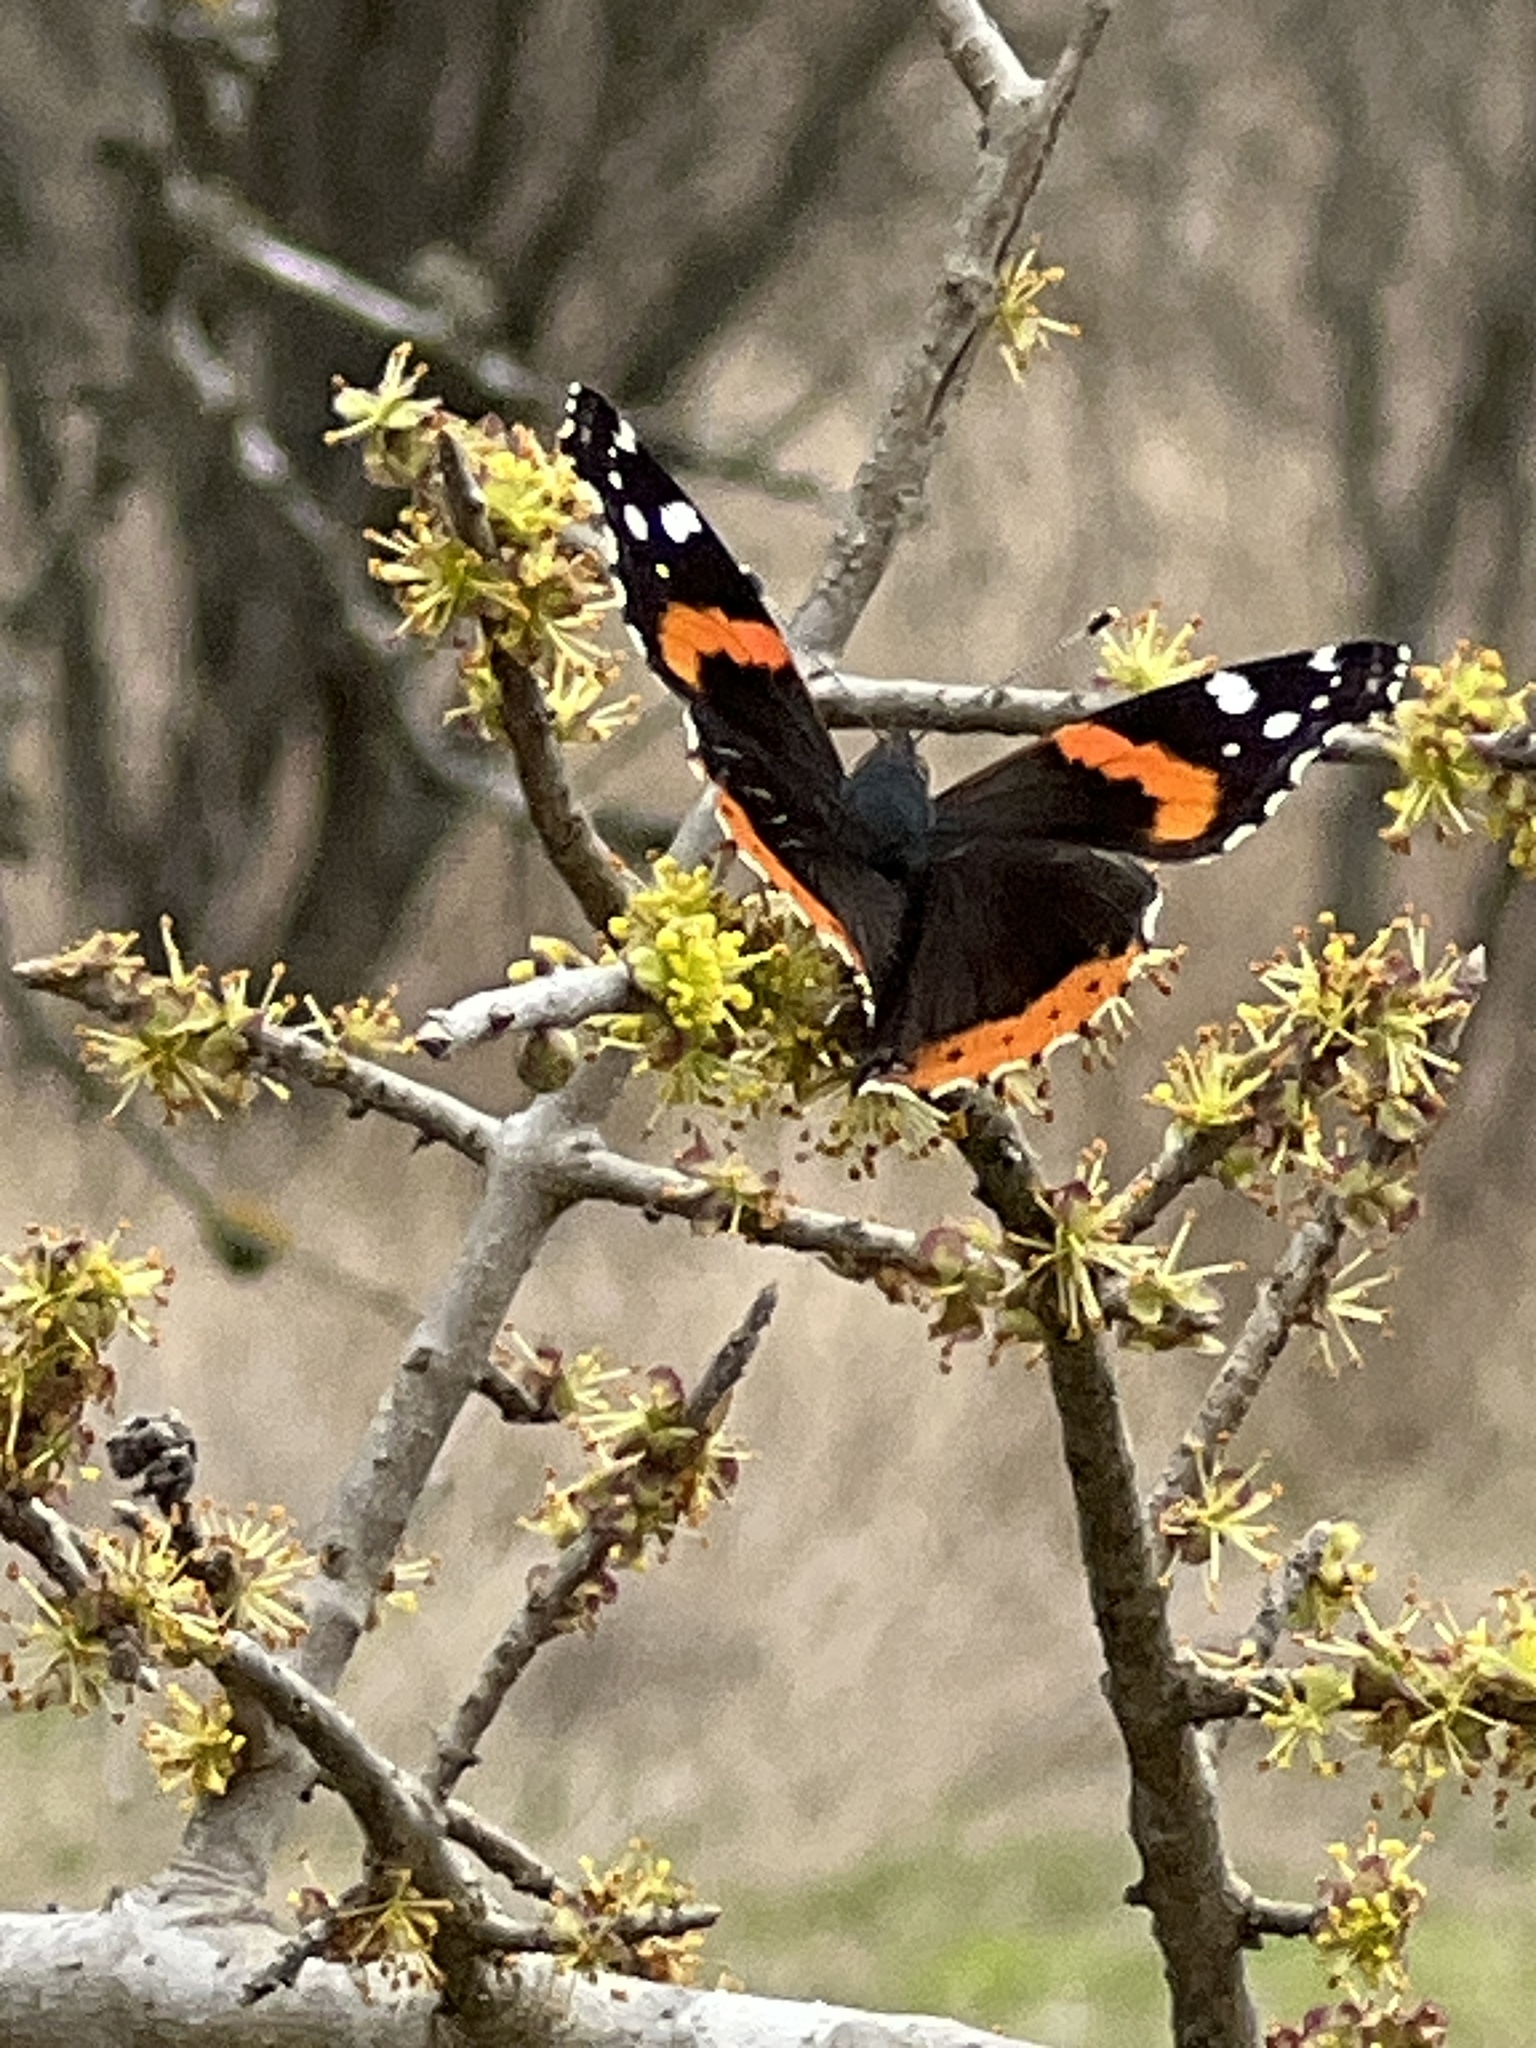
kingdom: Animalia
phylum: Arthropoda
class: Insecta
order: Lepidoptera
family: Nymphalidae
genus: Vanessa
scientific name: Vanessa atalanta
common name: Red admiral
